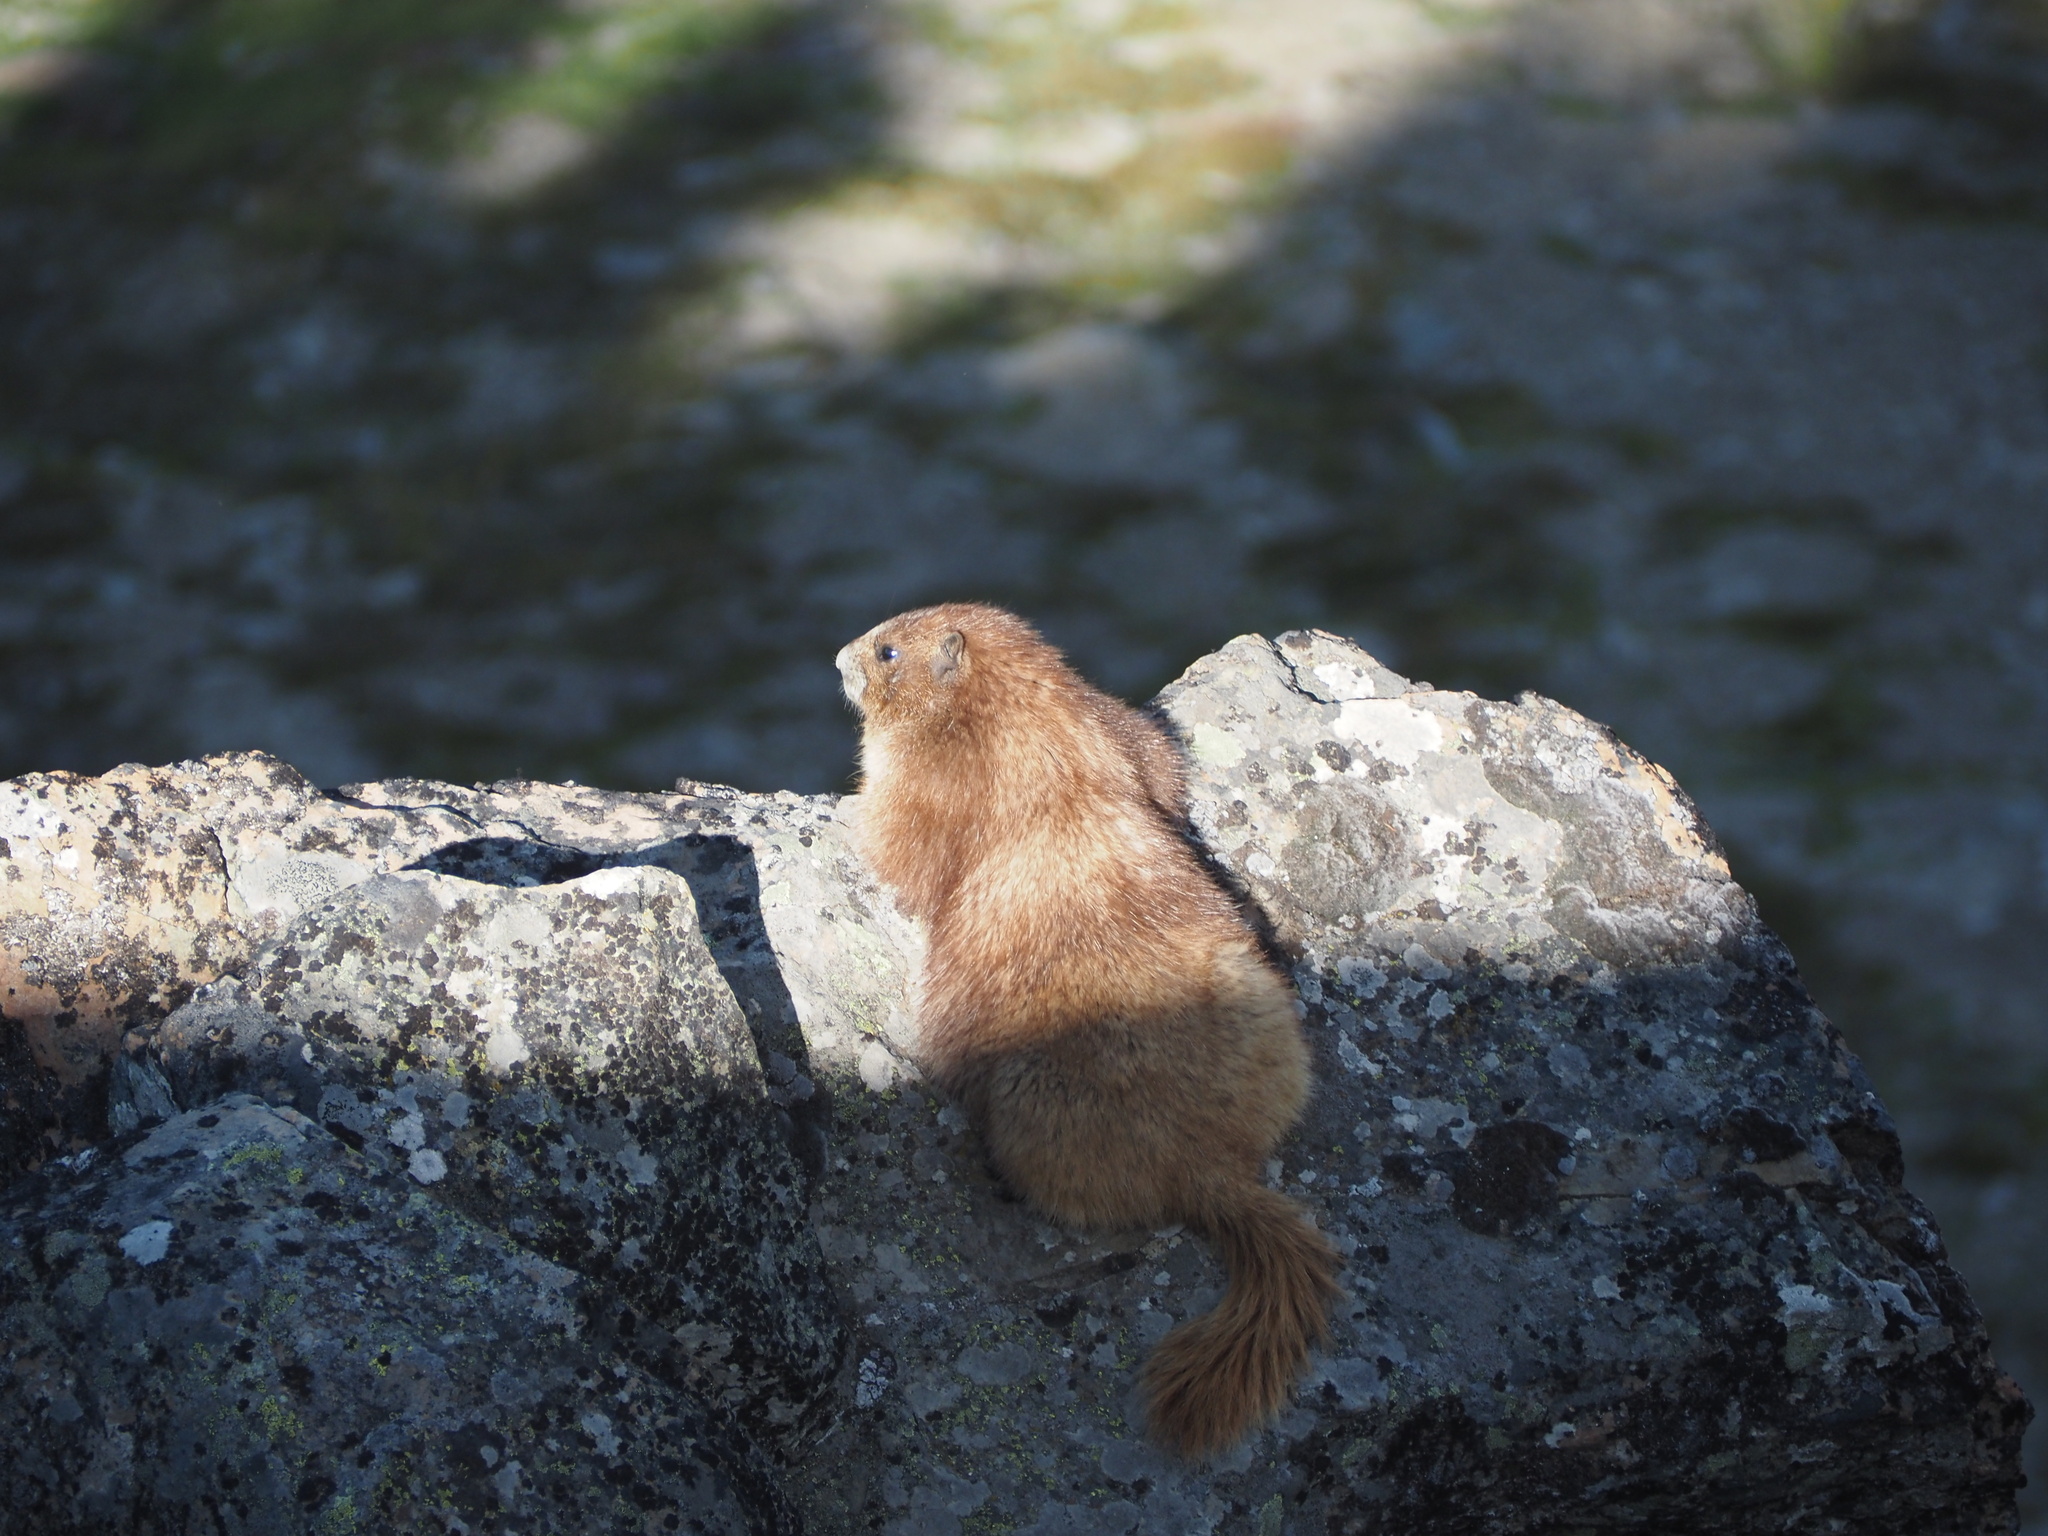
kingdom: Animalia
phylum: Chordata
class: Mammalia
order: Rodentia
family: Sciuridae
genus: Marmota
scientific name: Marmota olympus
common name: Olympic marmot
